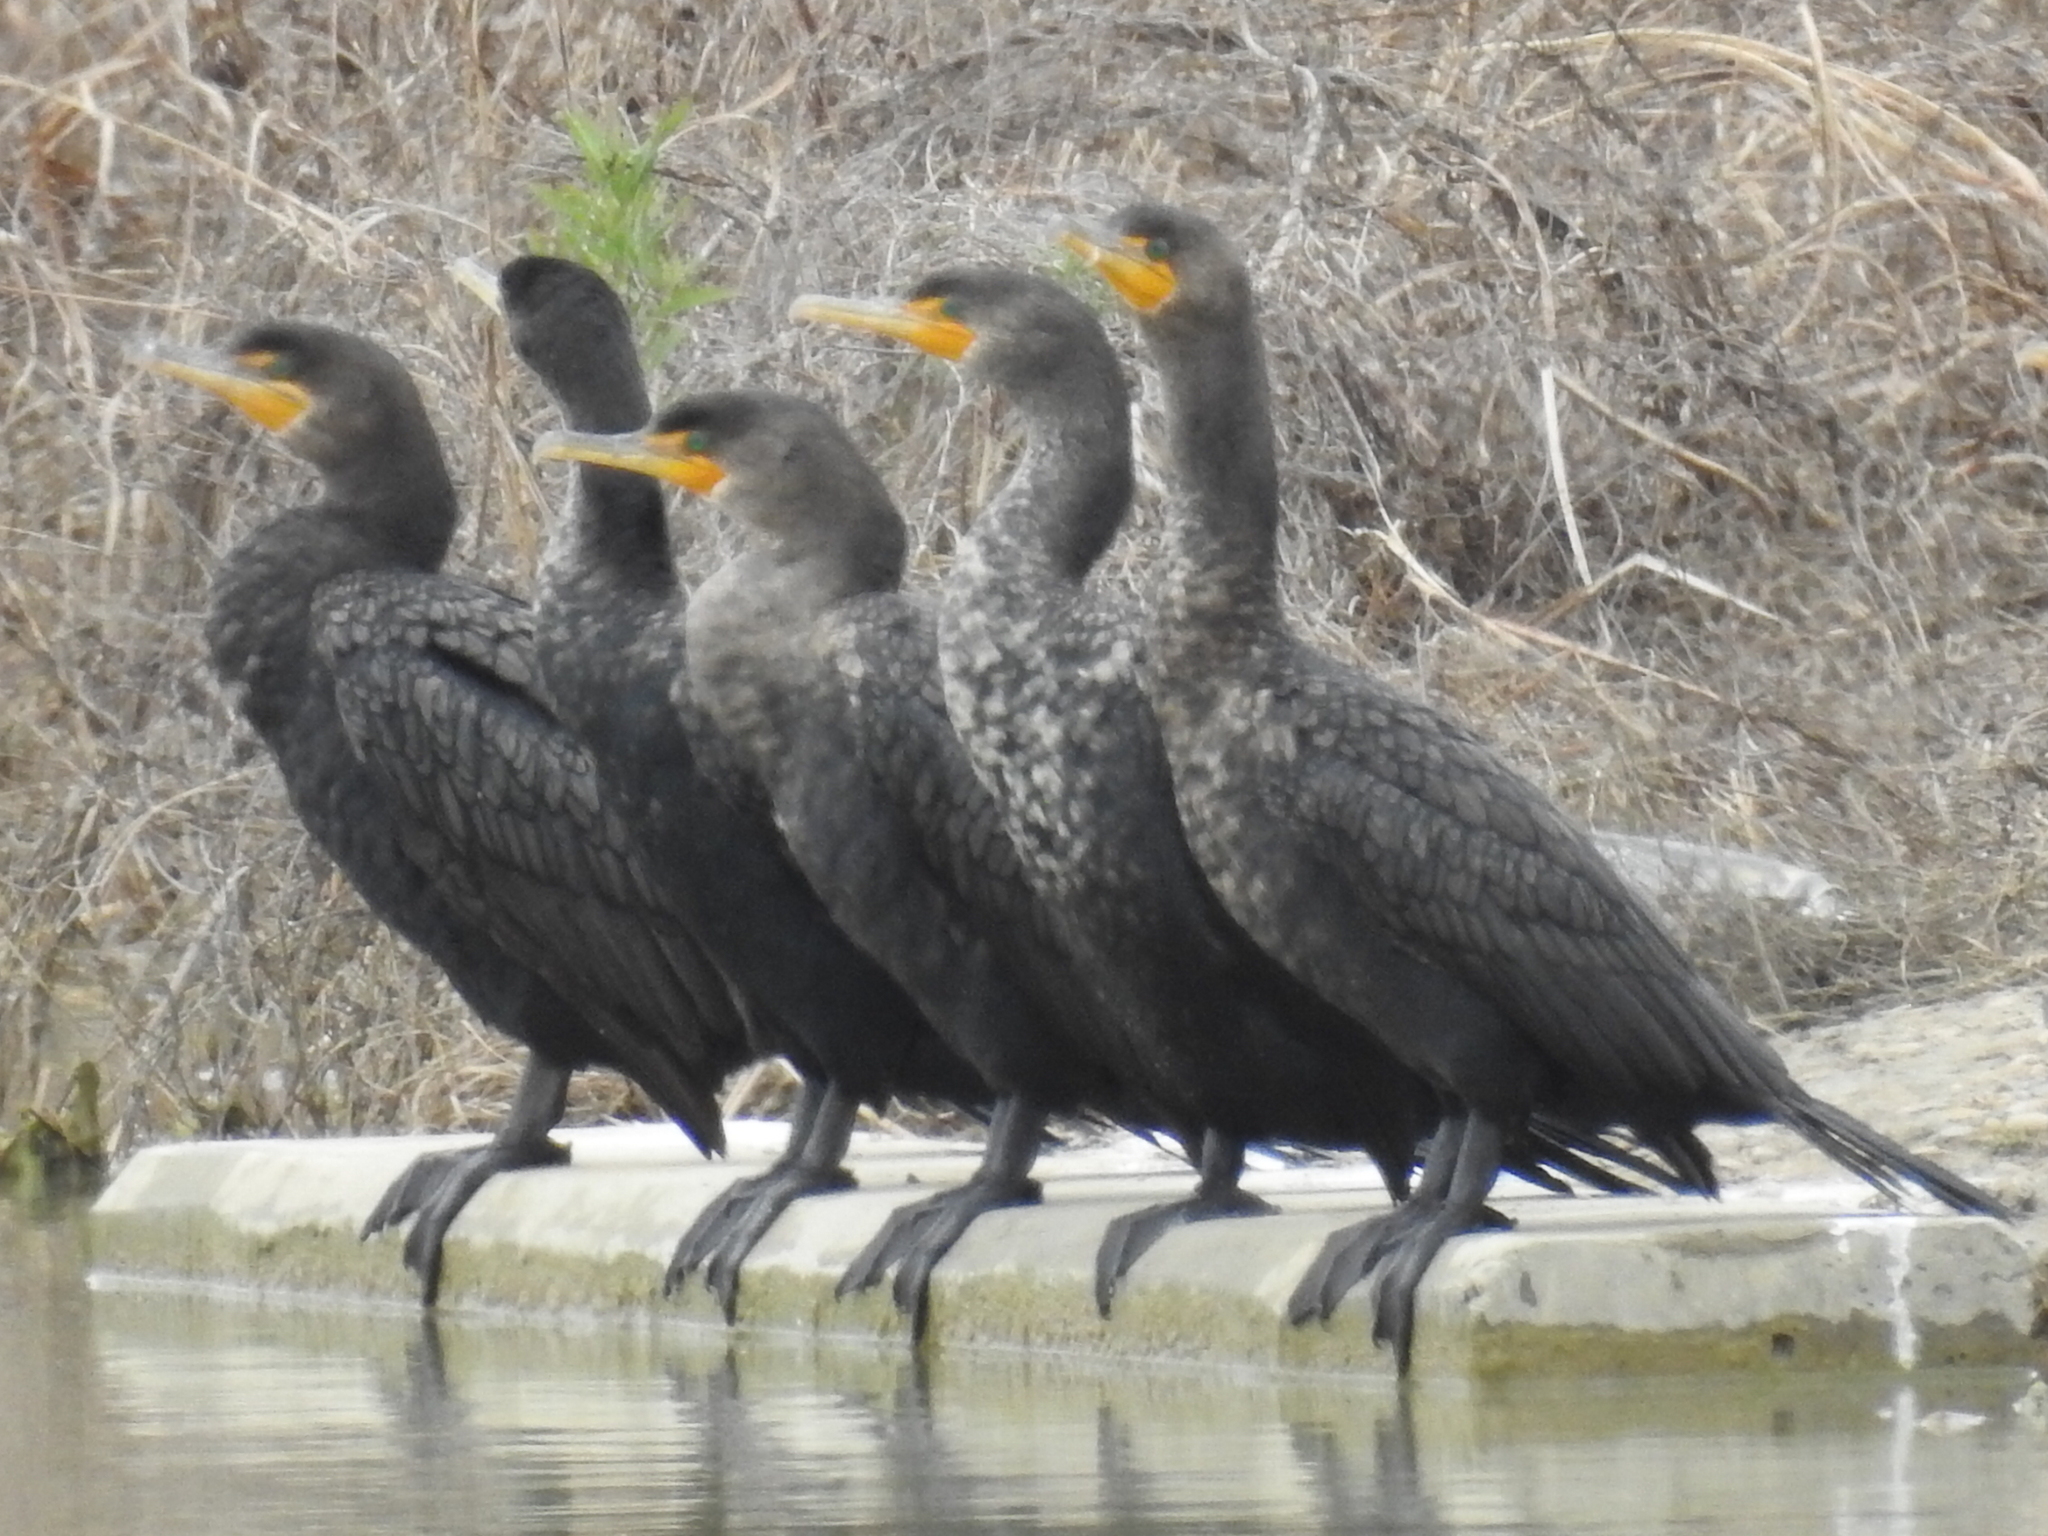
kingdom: Animalia
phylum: Chordata
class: Aves
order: Suliformes
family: Phalacrocoracidae
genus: Phalacrocorax
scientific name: Phalacrocorax auritus
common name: Double-crested cormorant
